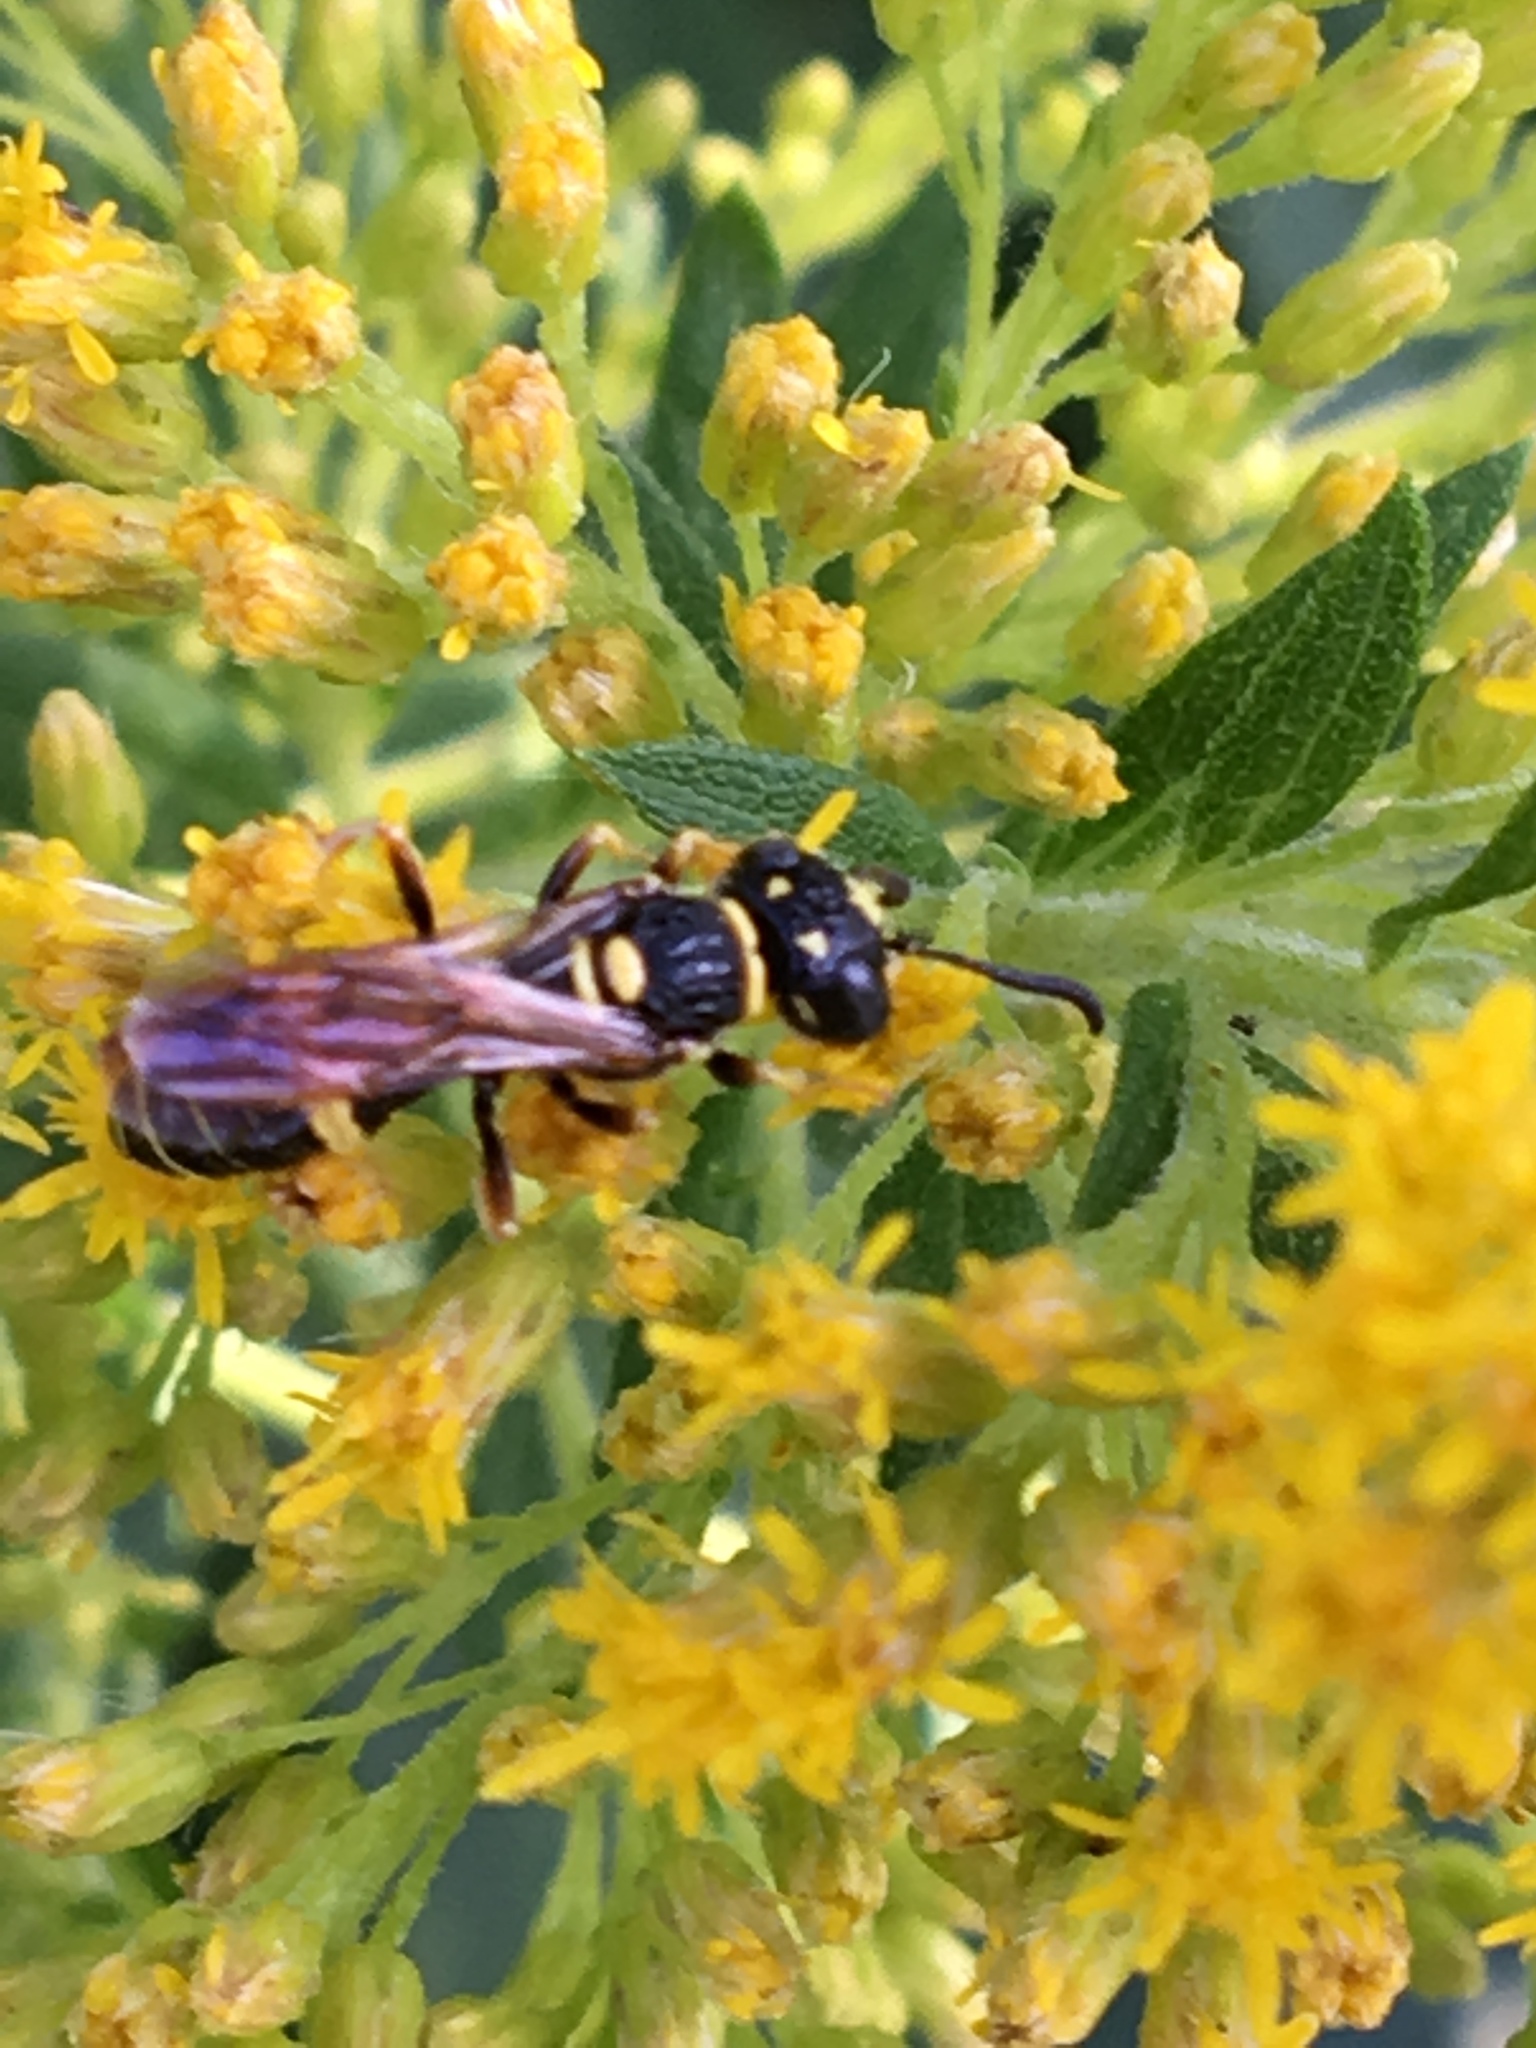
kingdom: Animalia
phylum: Arthropoda
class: Insecta
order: Hymenoptera
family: Crabronidae
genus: Philanthus
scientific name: Philanthus gibbosus
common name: Humped beewolf
